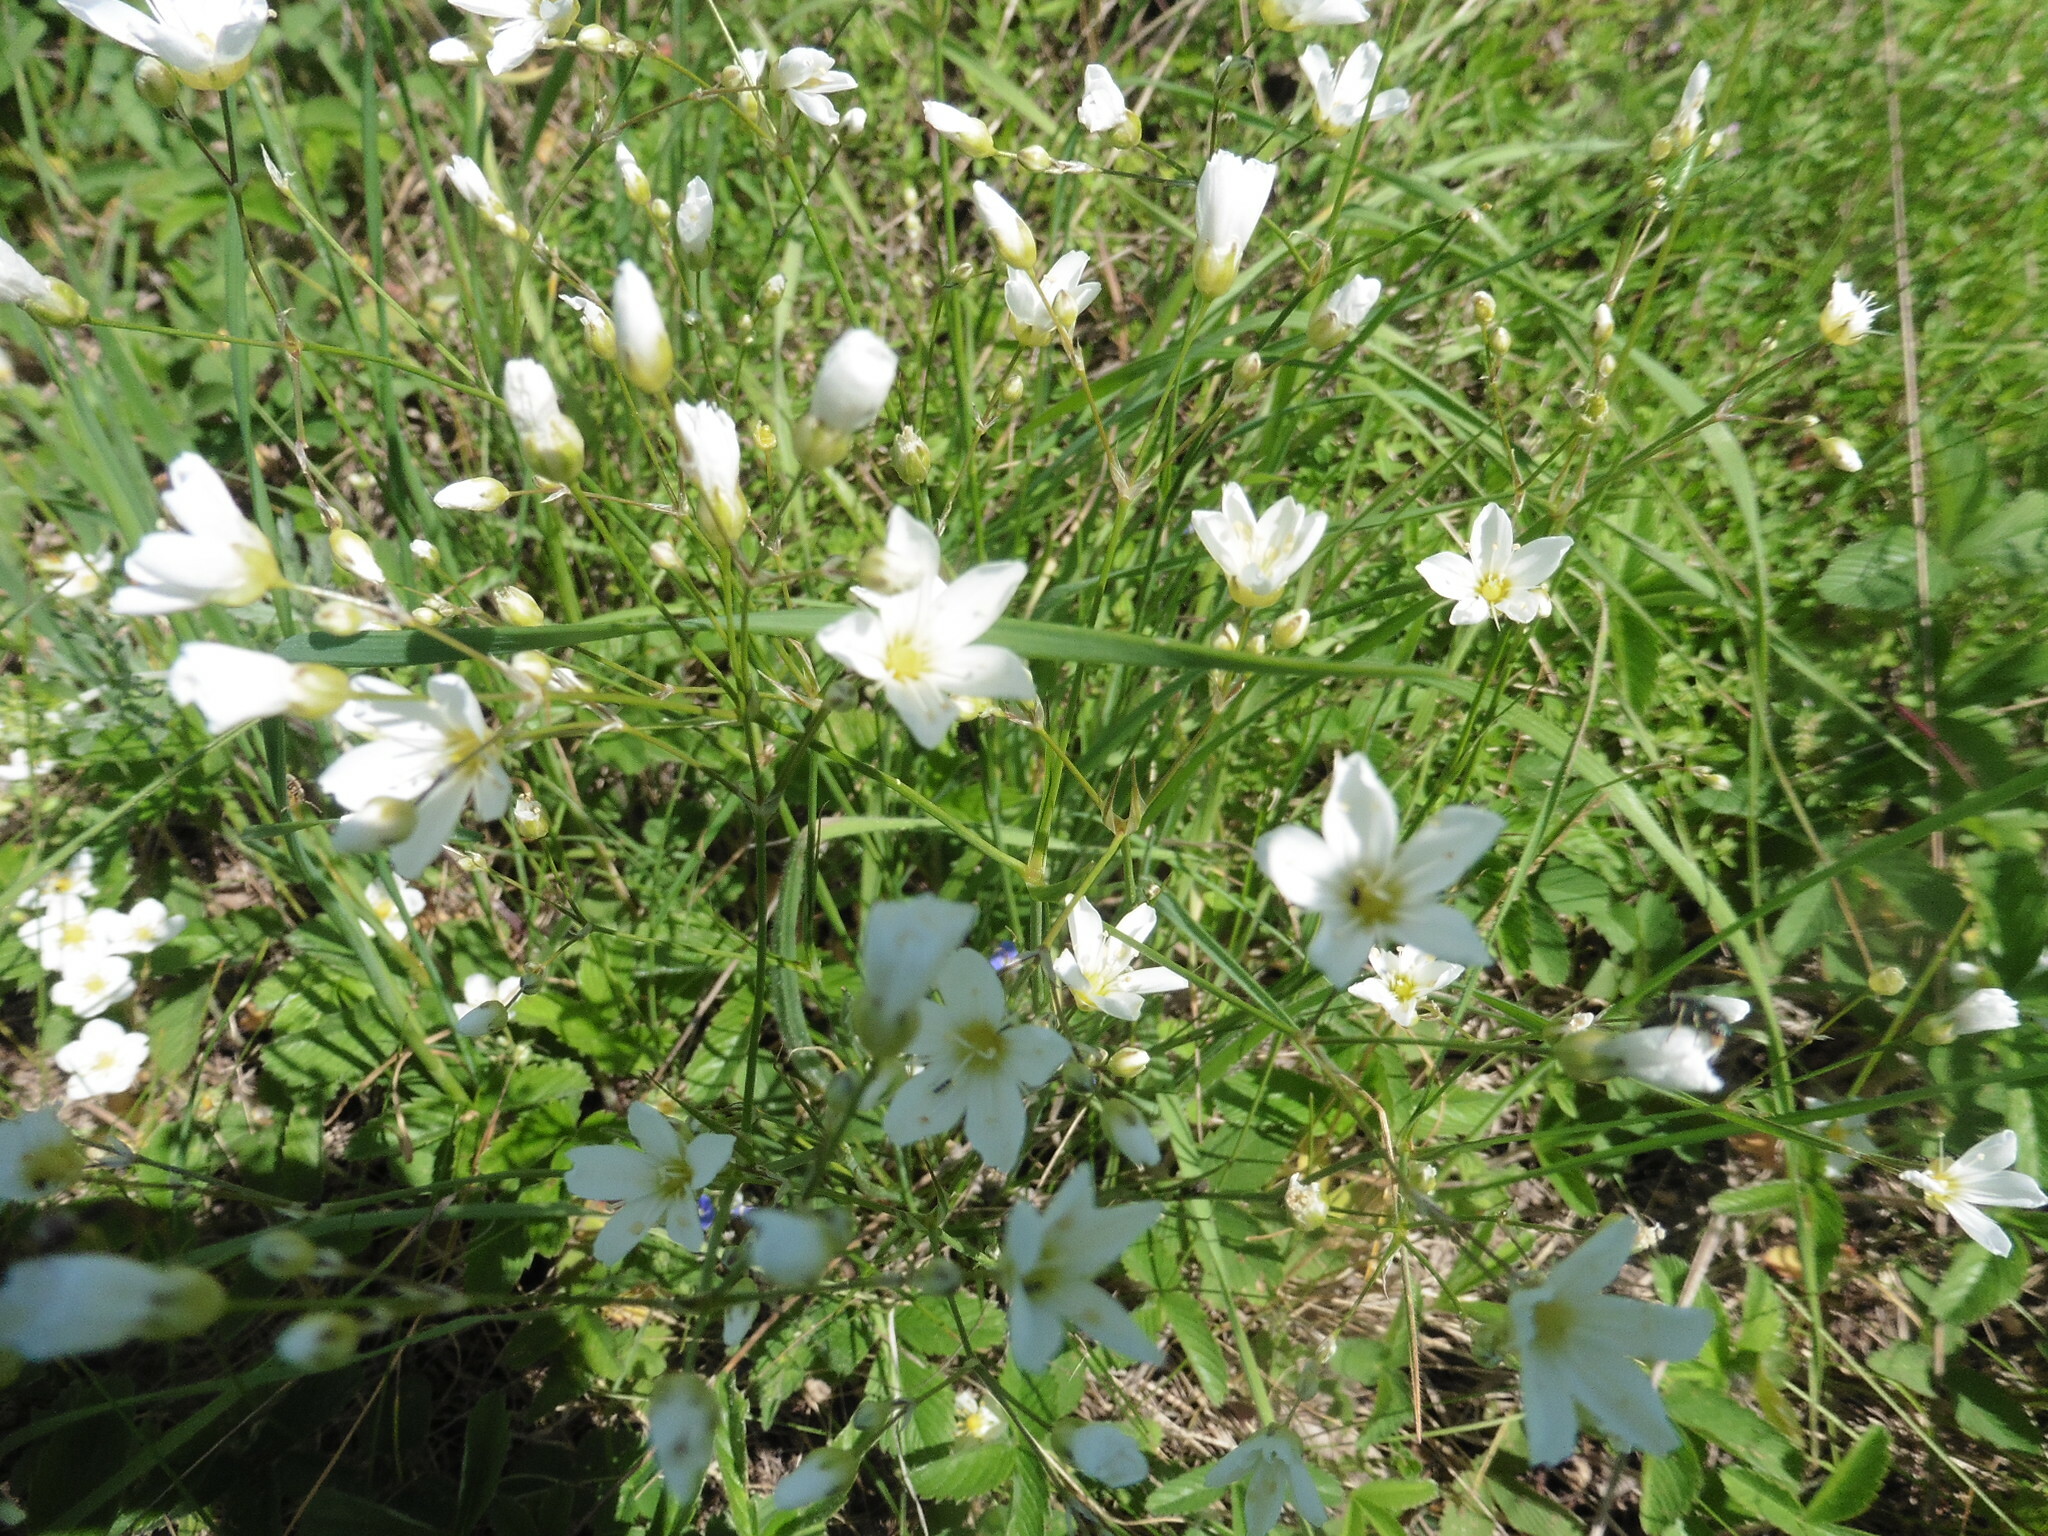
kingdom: Plantae
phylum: Tracheophyta
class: Magnoliopsida
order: Caryophyllales
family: Caryophyllaceae
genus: Eremogone
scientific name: Eremogone saxatilis
